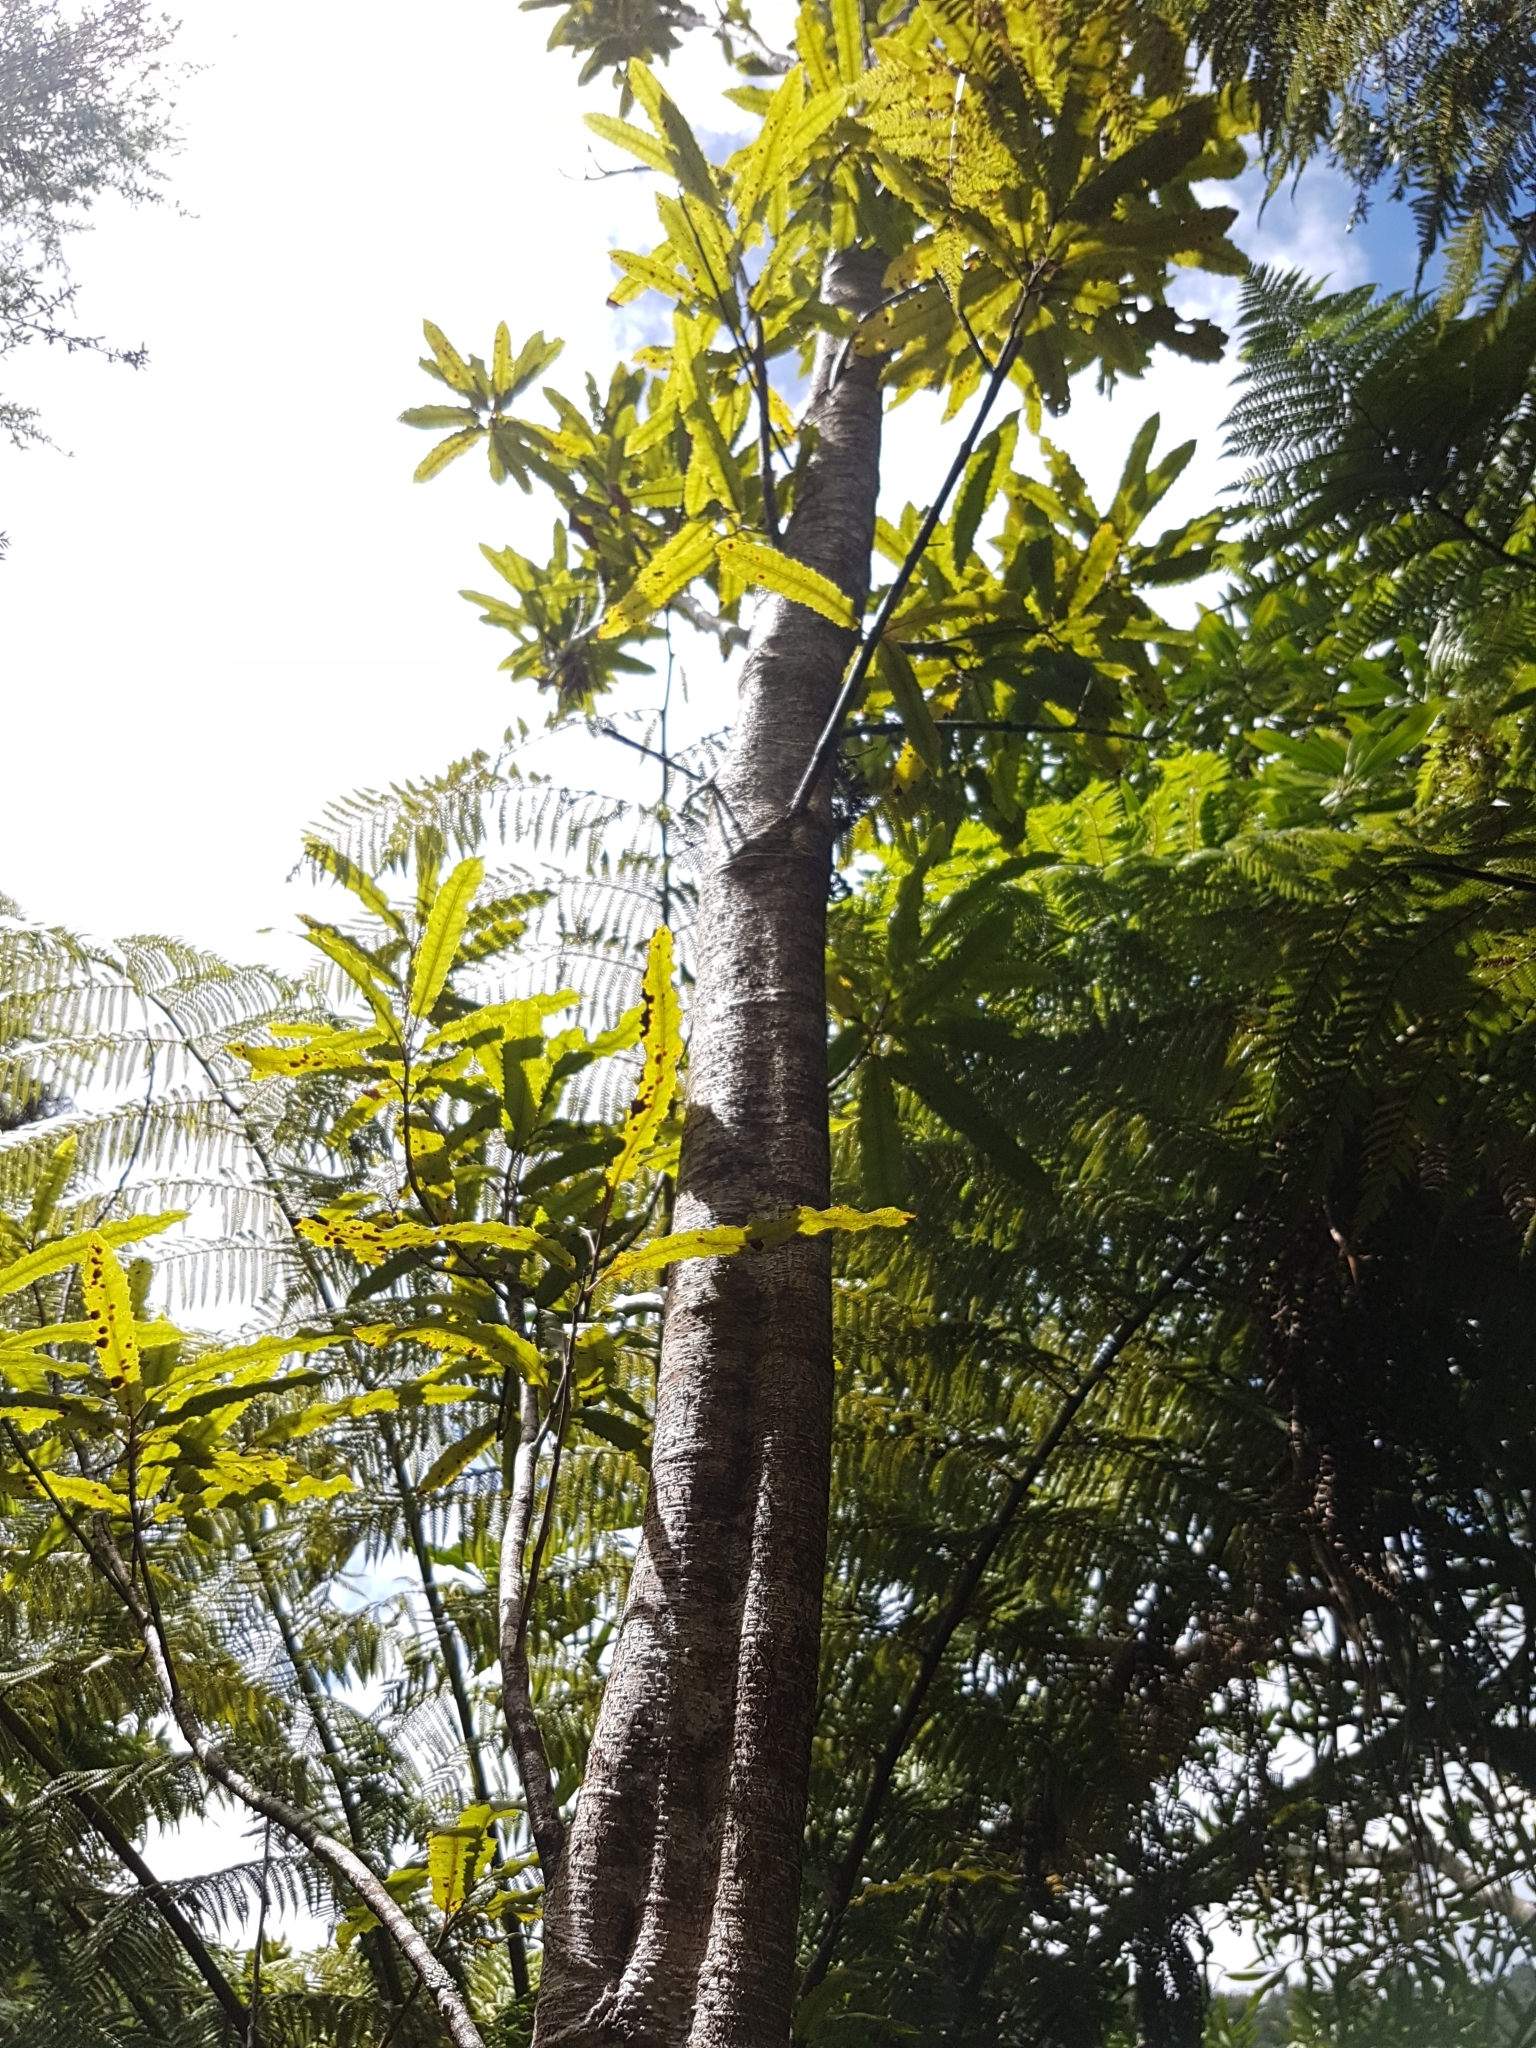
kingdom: Plantae
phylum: Tracheophyta
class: Magnoliopsida
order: Proteales
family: Proteaceae
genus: Knightia
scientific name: Knightia excelsa
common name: New zealand-honeysuckle
